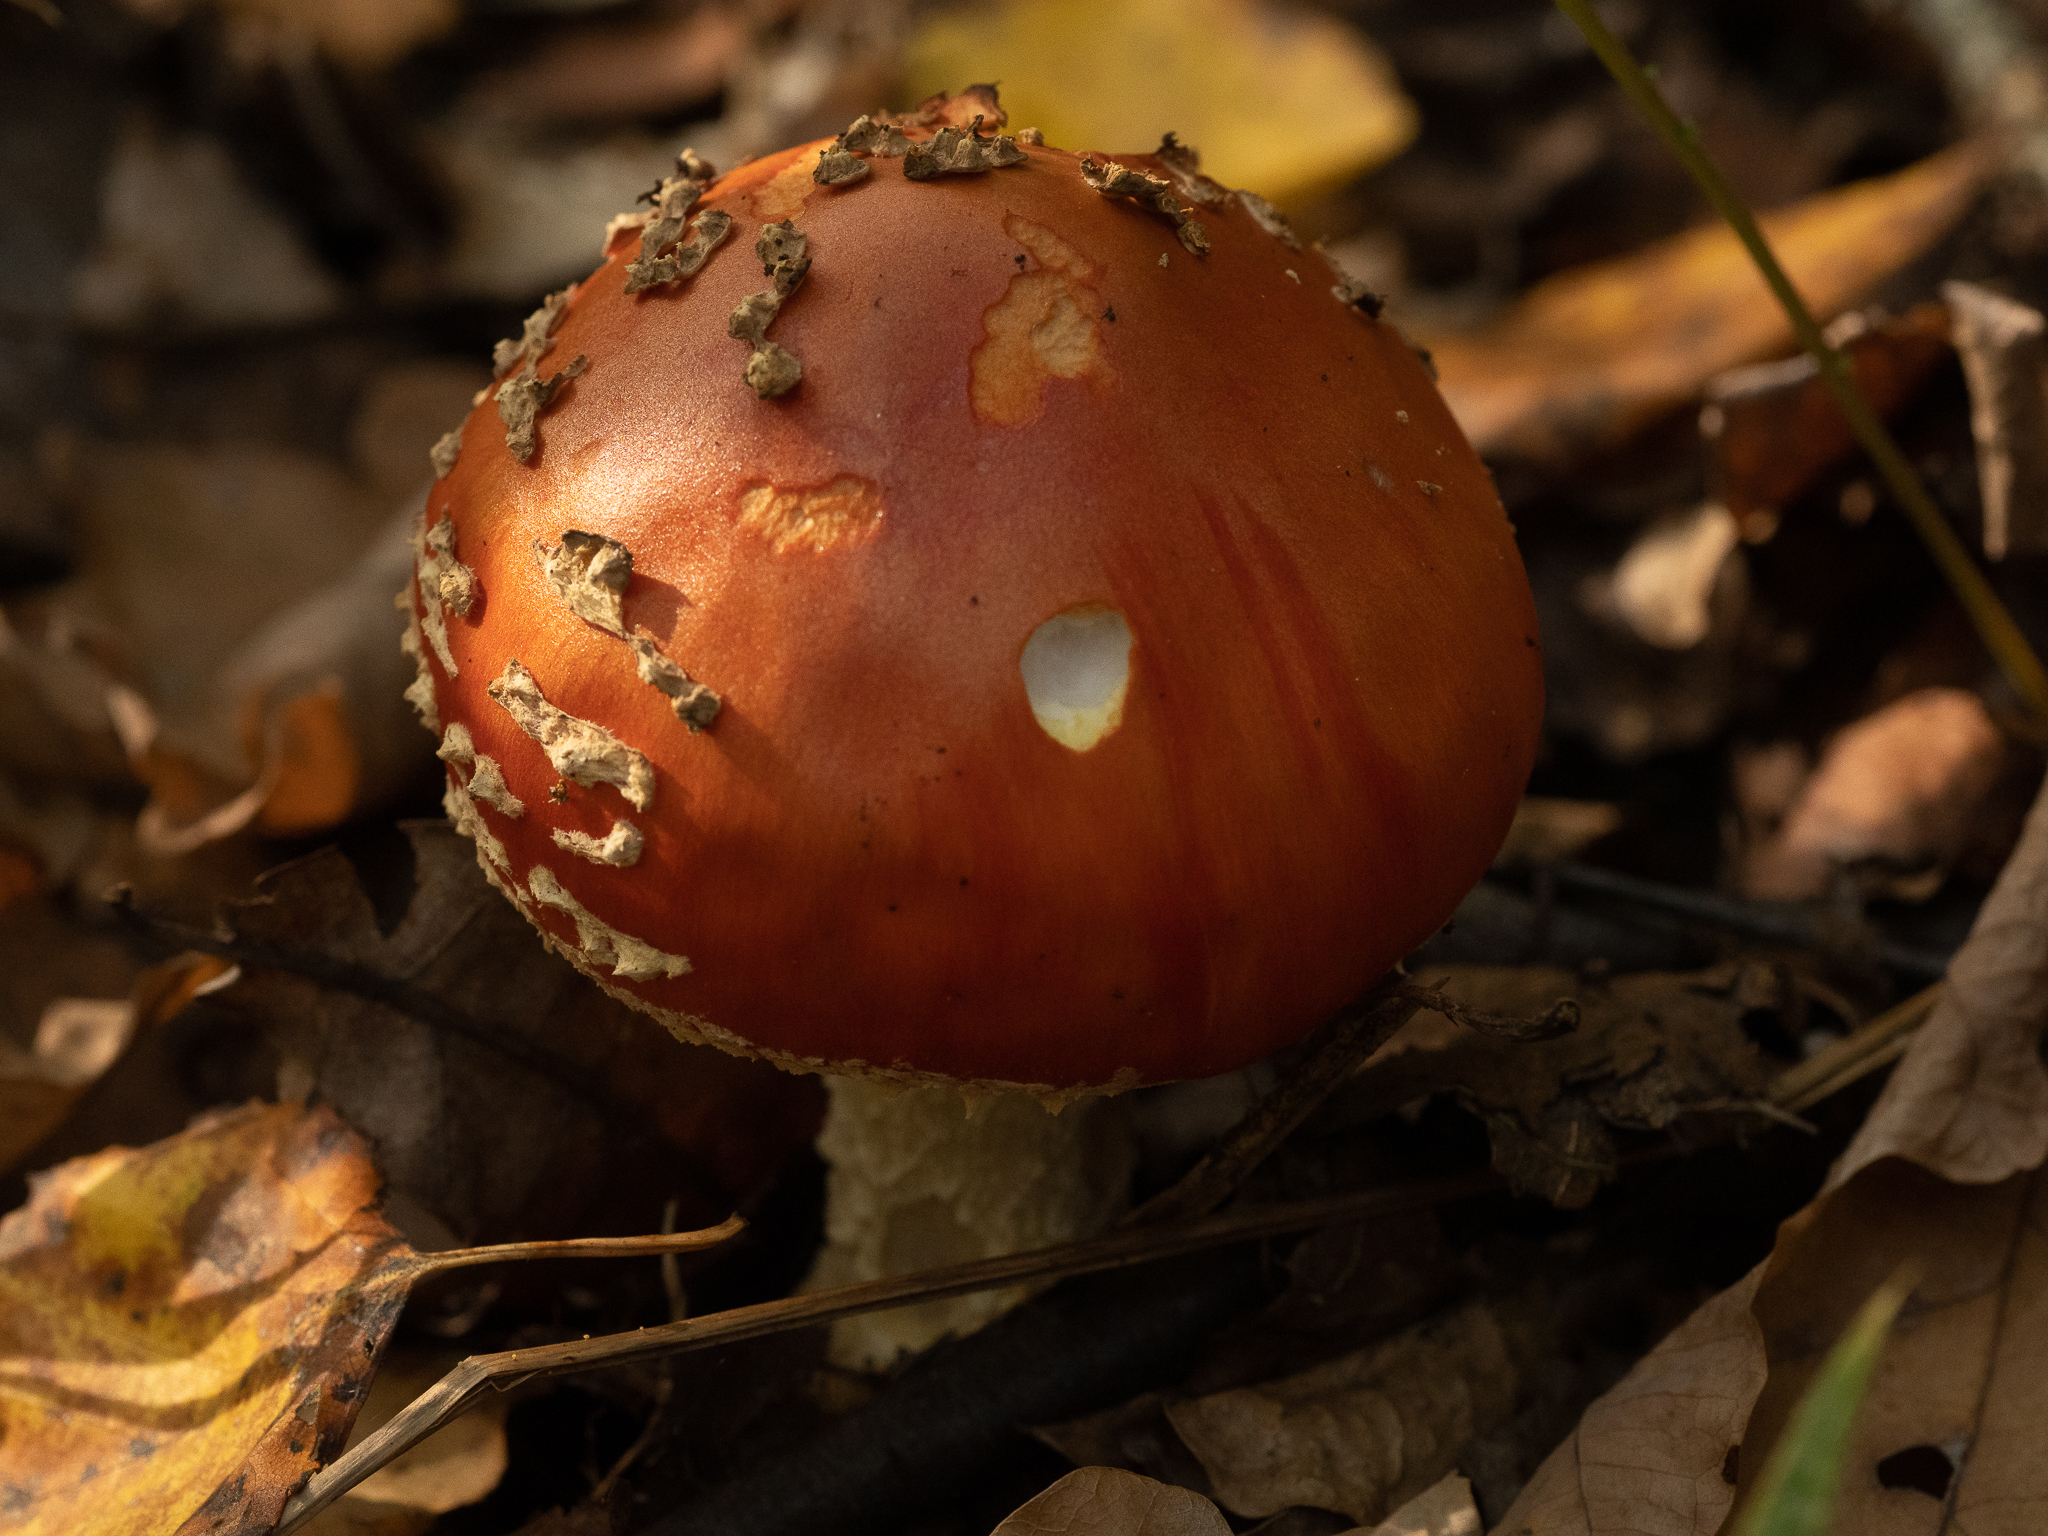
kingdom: Fungi
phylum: Basidiomycota
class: Agaricomycetes
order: Agaricales
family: Amanitaceae
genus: Amanita
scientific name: Amanita muscaria
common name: Fly agaric
